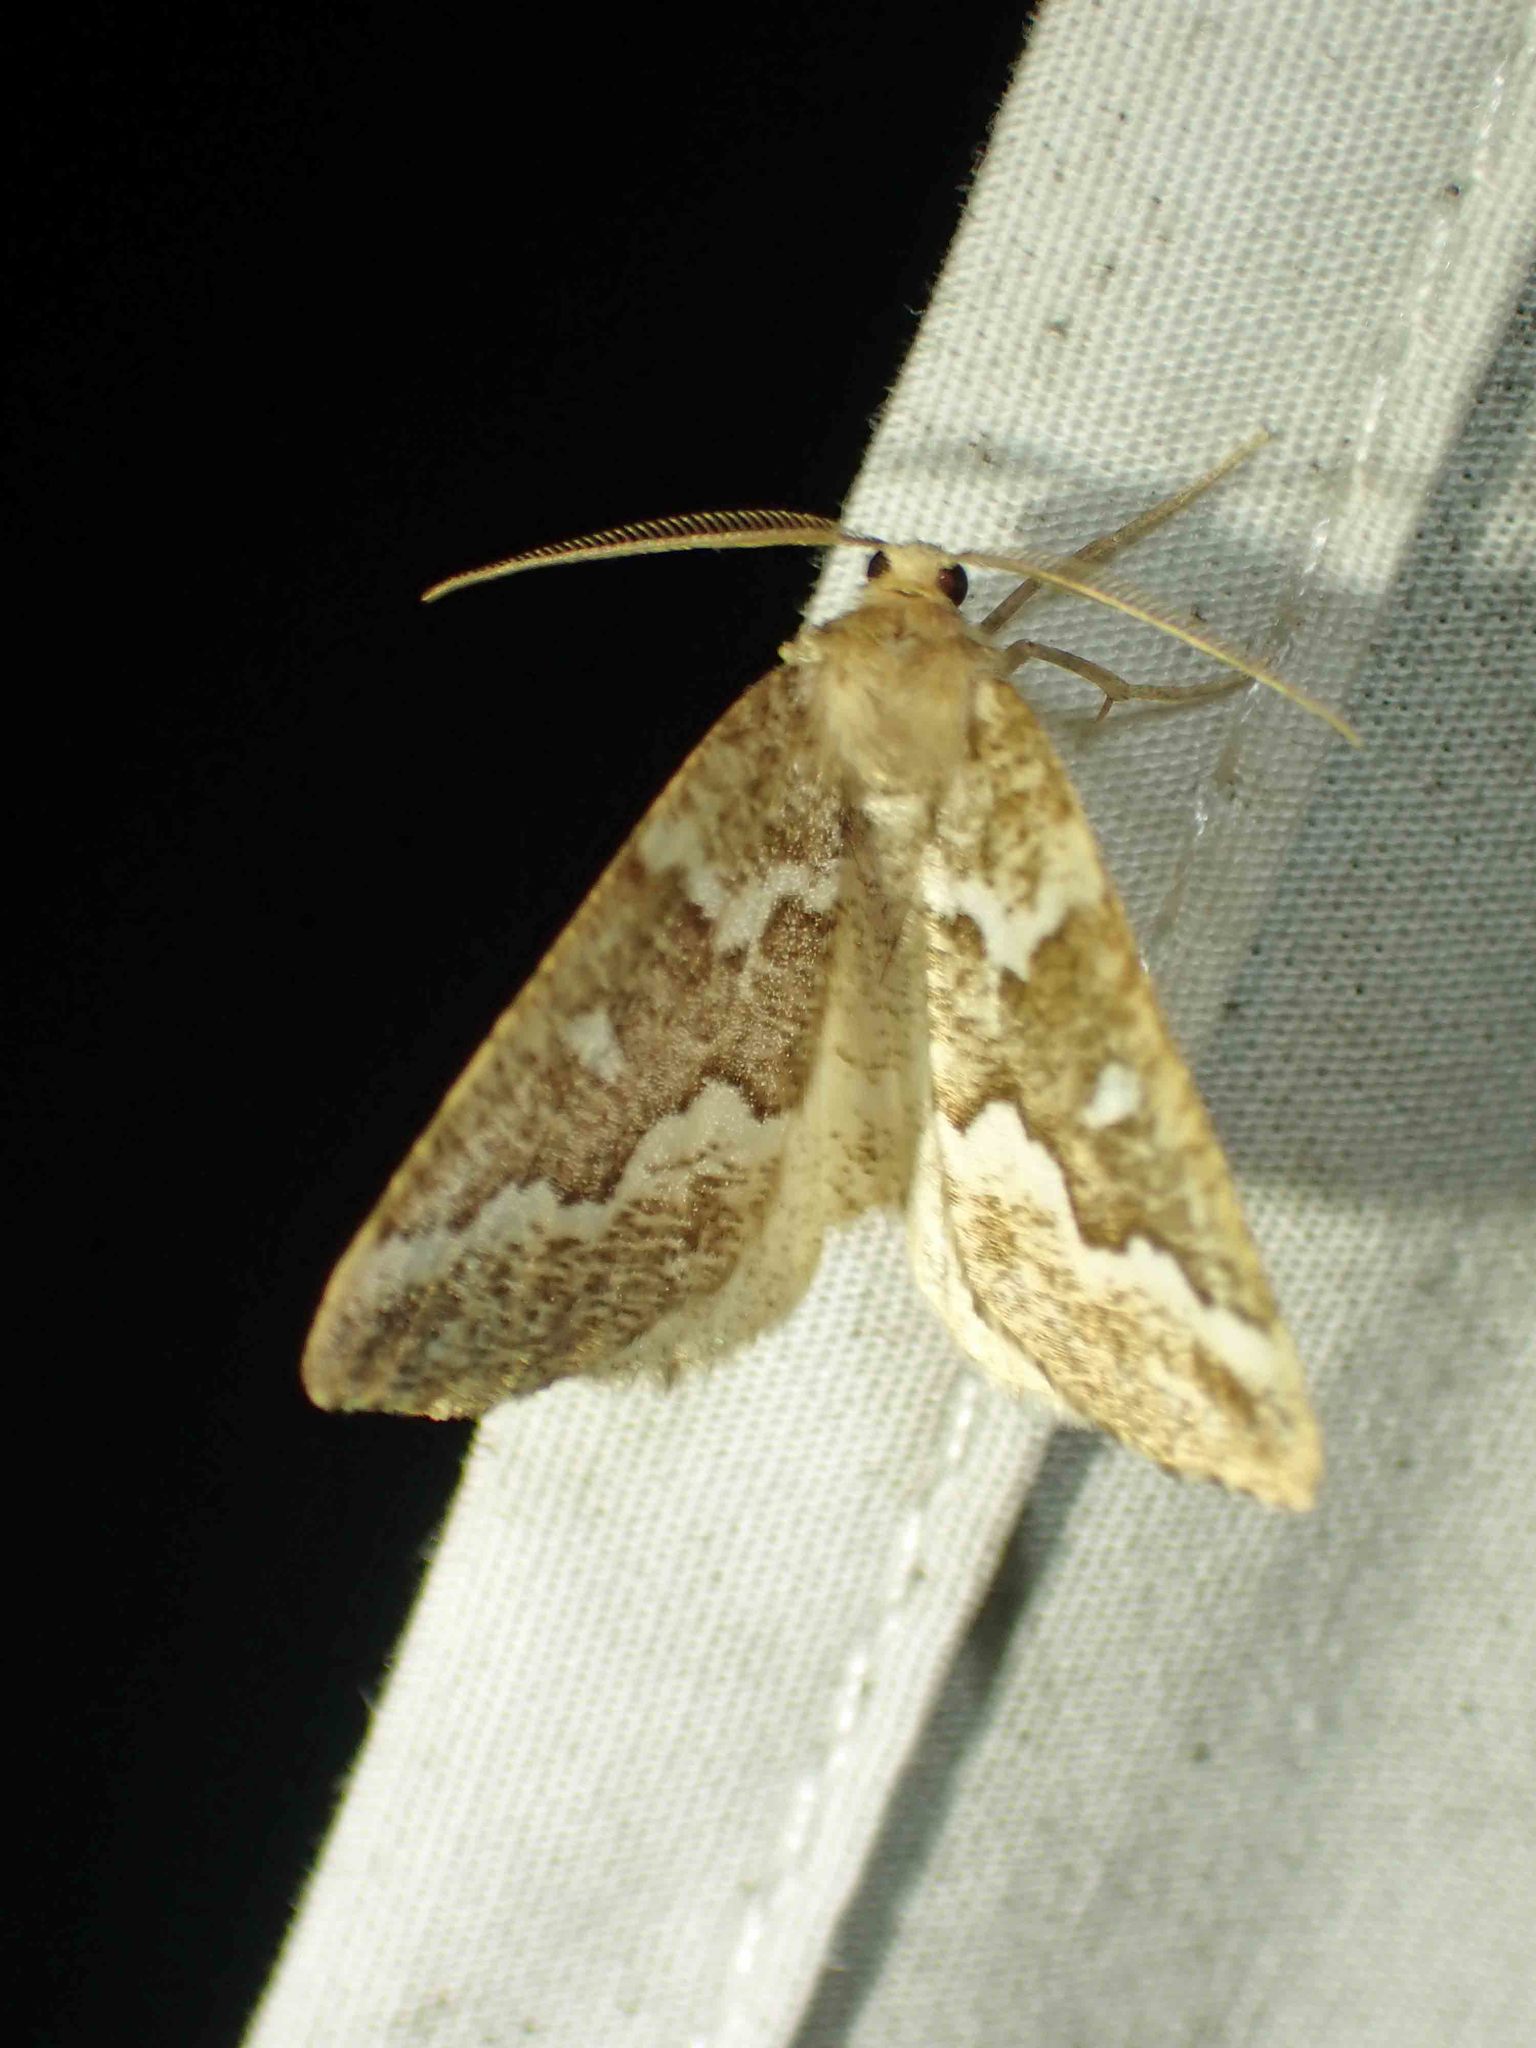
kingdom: Animalia
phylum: Arthropoda
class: Insecta
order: Lepidoptera
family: Geometridae
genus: Caripeta
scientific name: Caripeta divisata
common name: Gray spruce looper
